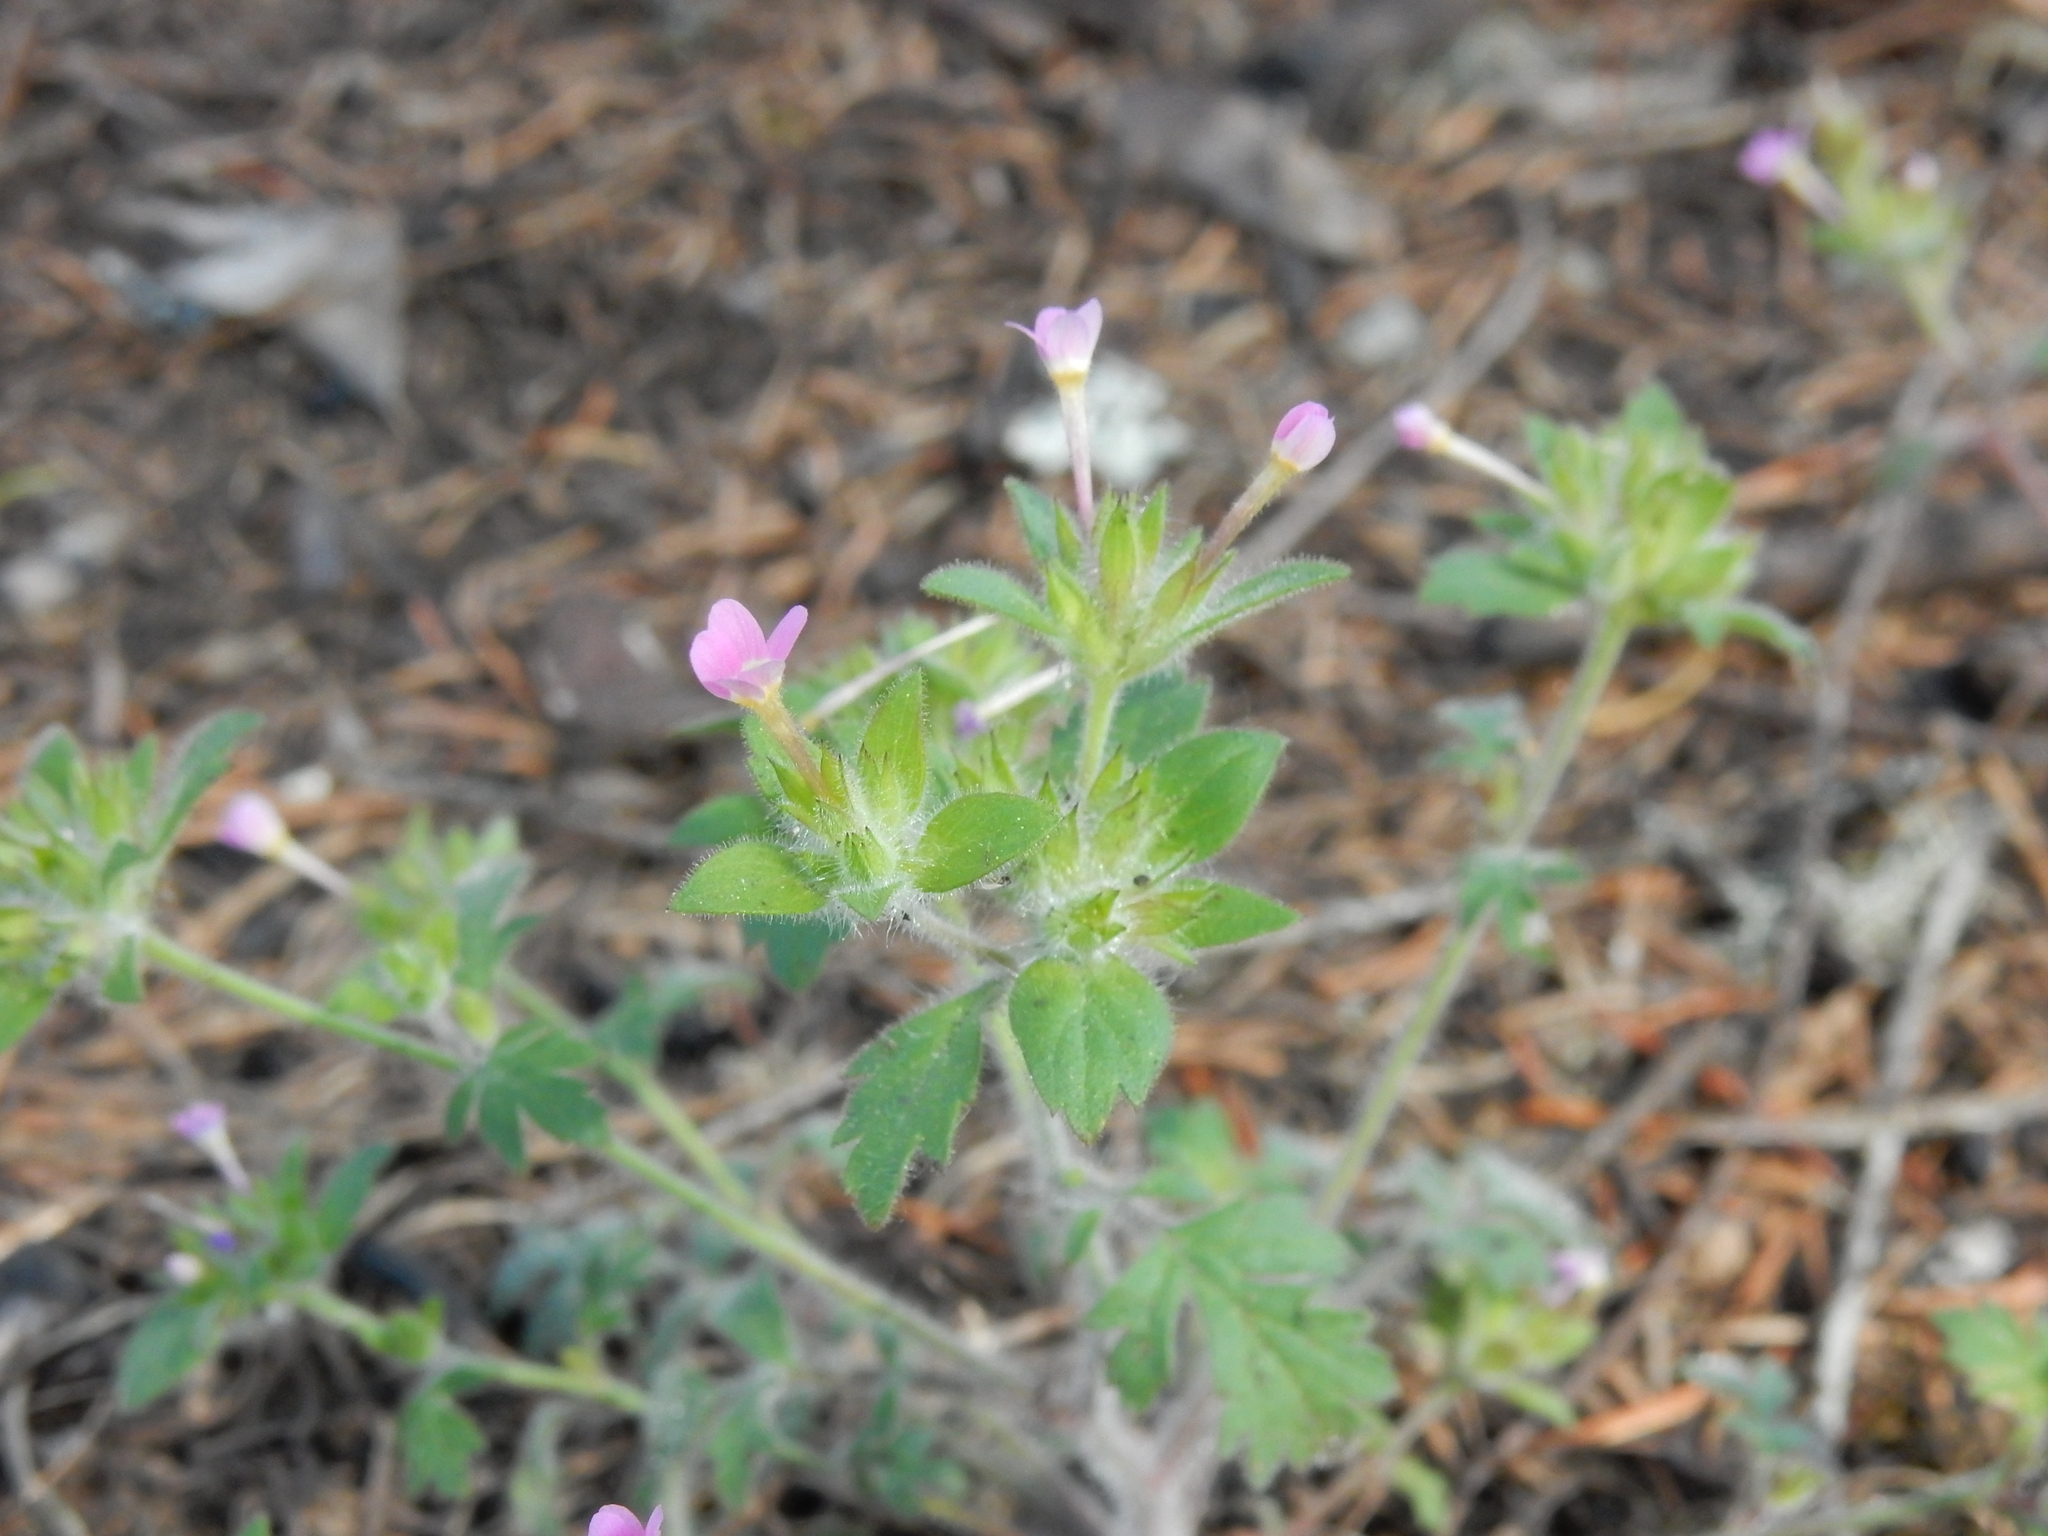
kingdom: Plantae
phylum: Tracheophyta
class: Magnoliopsida
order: Ericales
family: Polemoniaceae
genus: Collomia
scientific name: Collomia heterophylla
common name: Variable-leaved collomia
